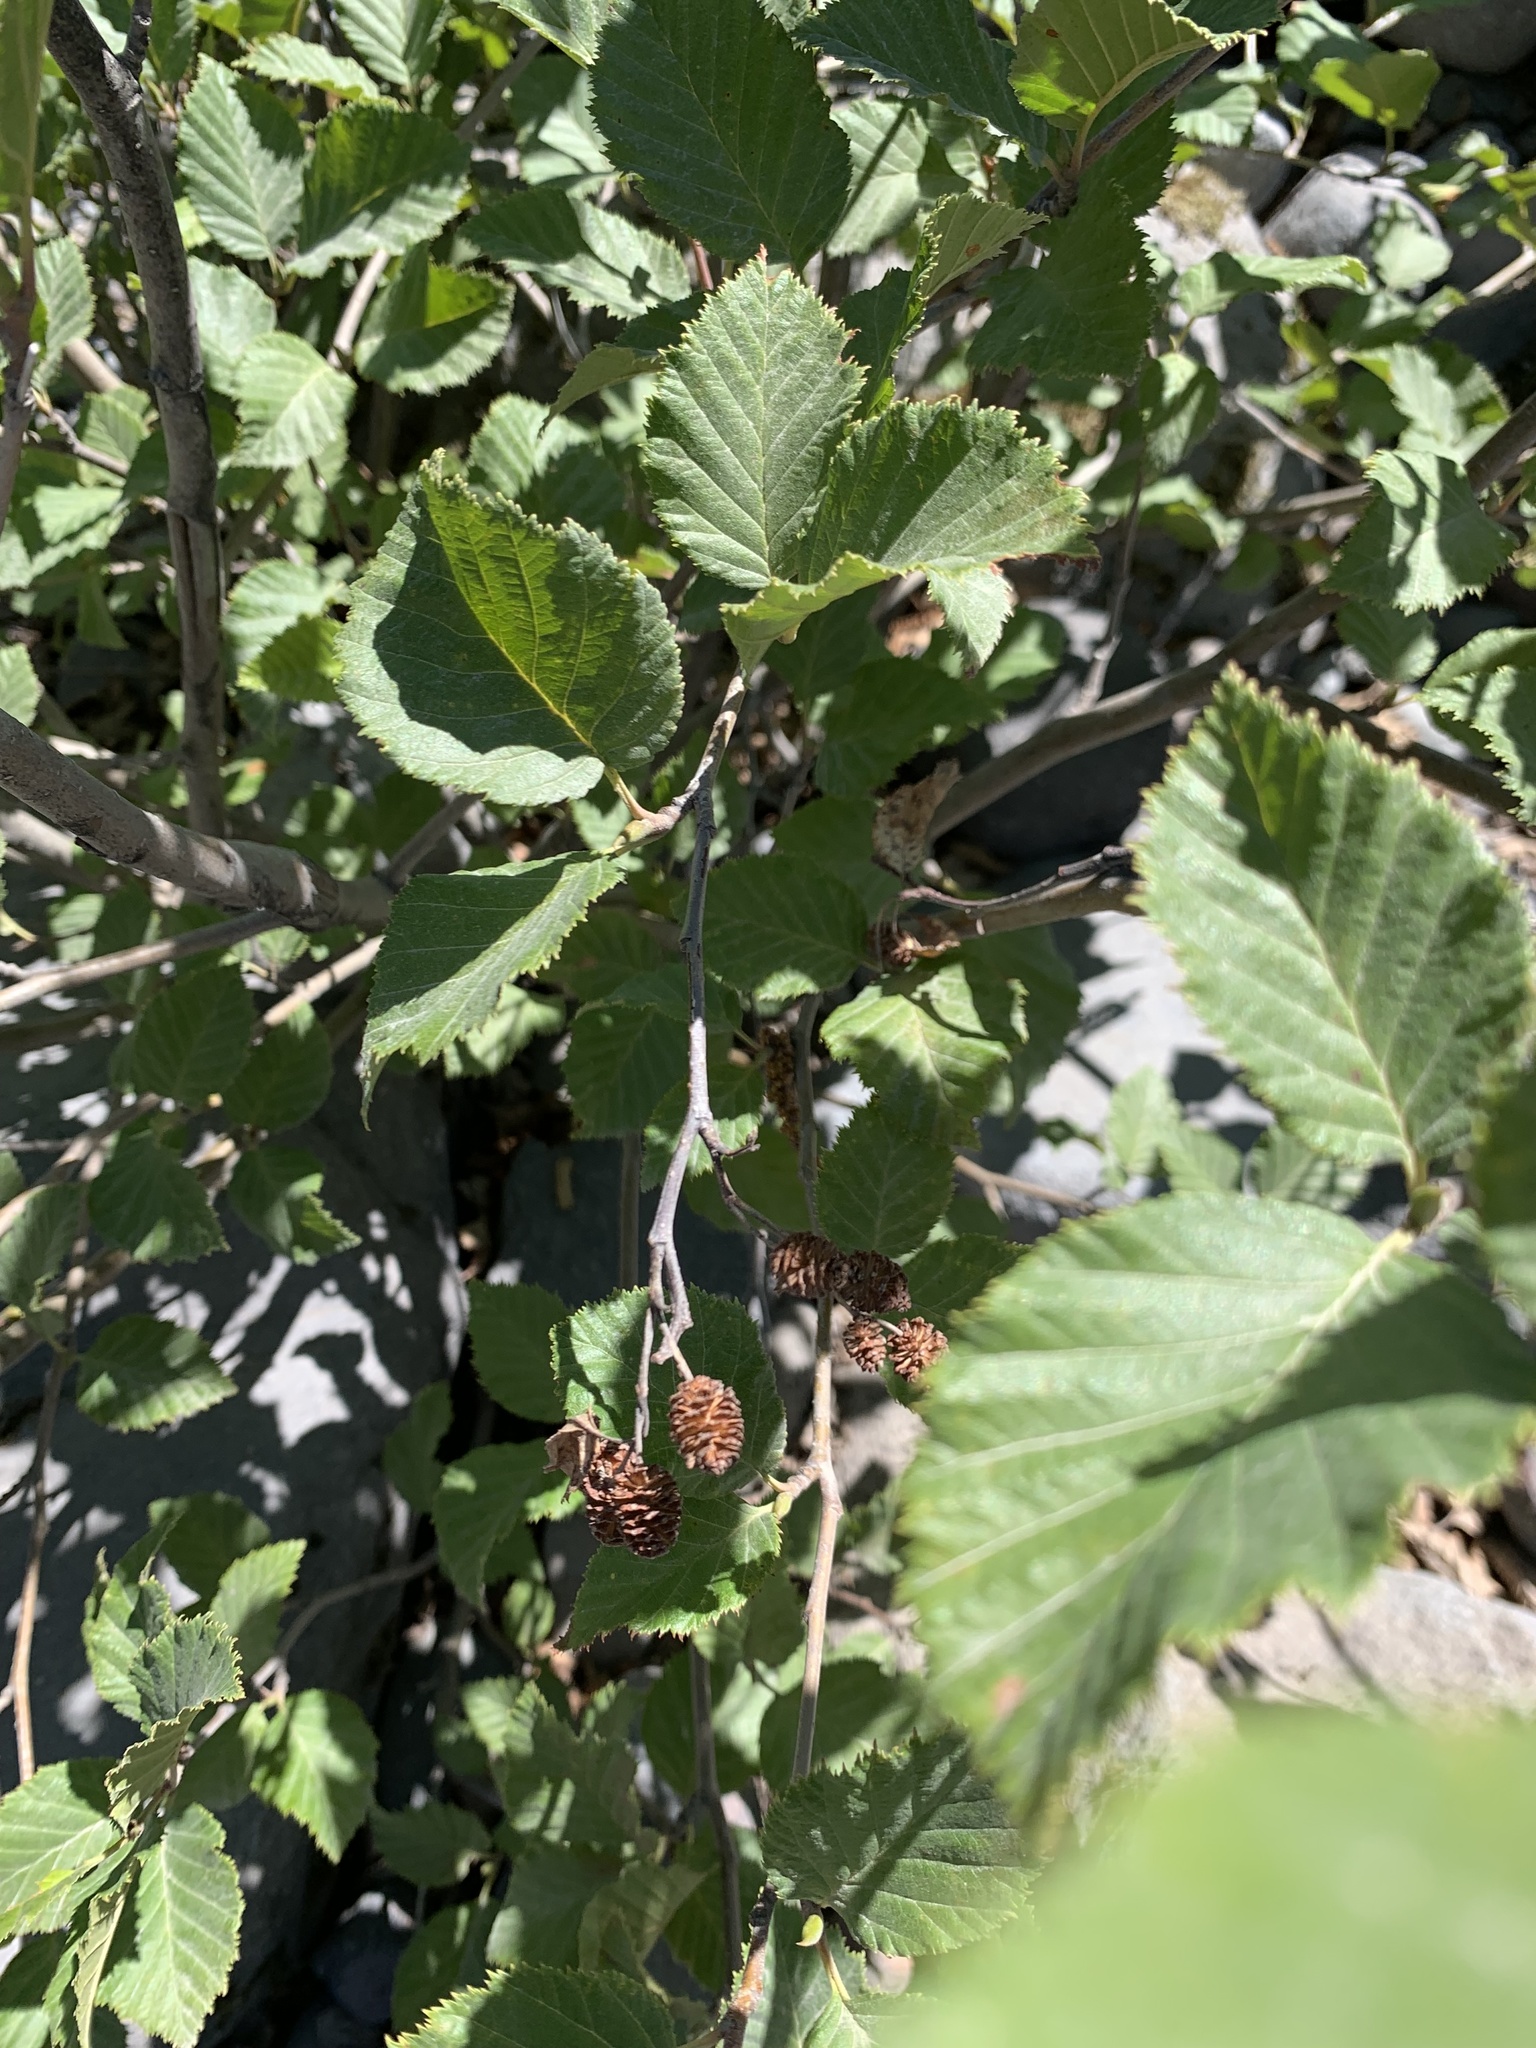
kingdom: Plantae
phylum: Tracheophyta
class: Magnoliopsida
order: Fagales
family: Betulaceae
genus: Alnus
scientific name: Alnus alnobetula
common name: Green alder
